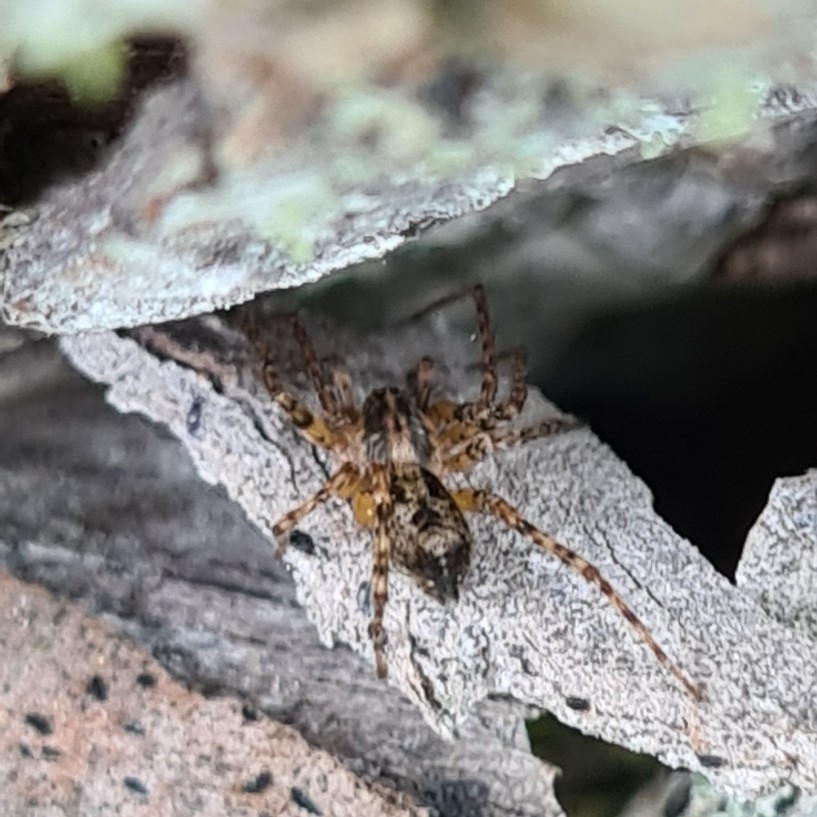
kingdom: Animalia
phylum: Arthropoda
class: Arachnida
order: Araneae
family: Anyphaenidae
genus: Anyphaena
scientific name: Anyphaena accentuata
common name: Buzzing spider
